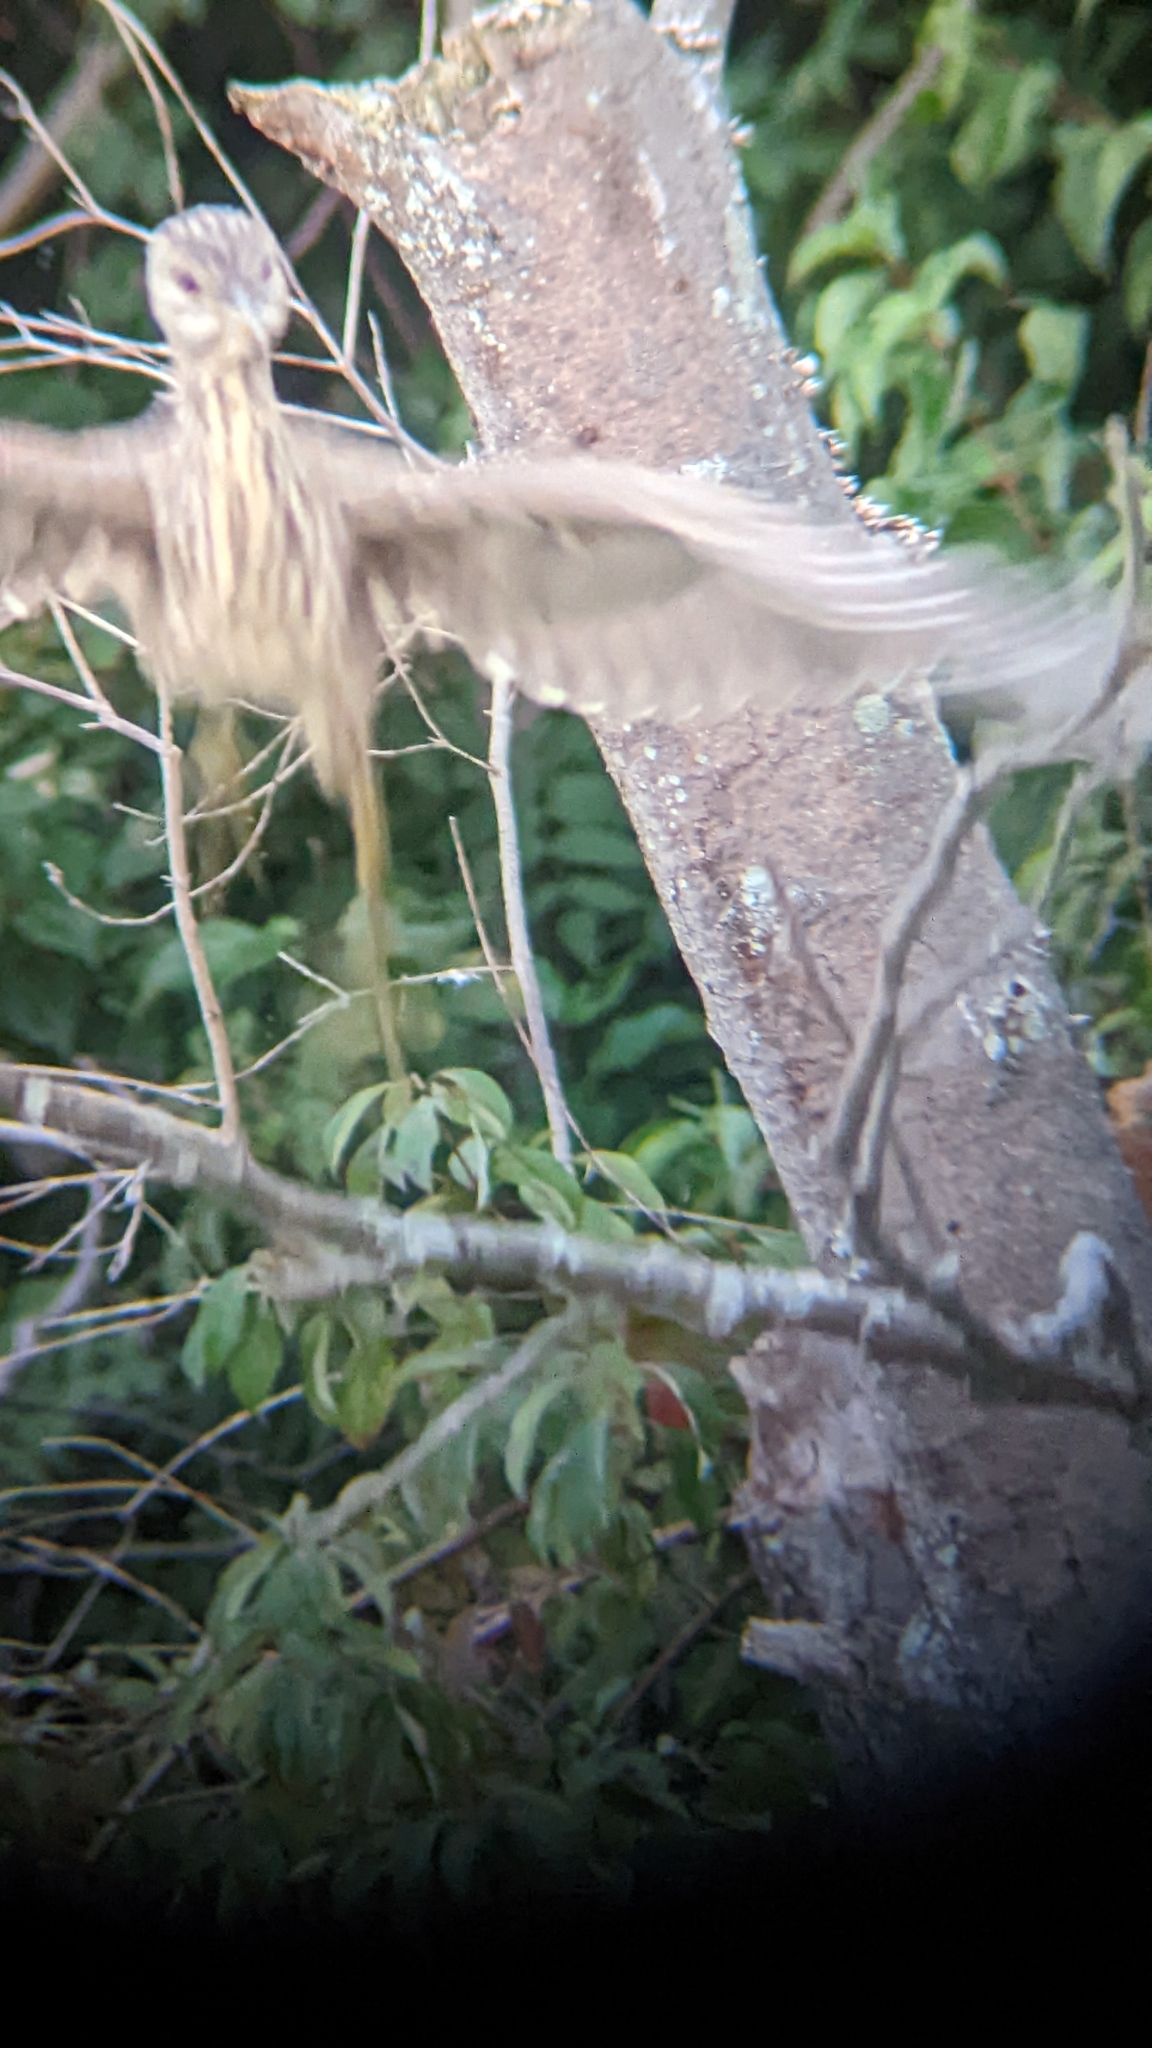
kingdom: Animalia
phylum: Chordata
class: Aves
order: Pelecaniformes
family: Ardeidae
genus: Nycticorax
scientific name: Nycticorax nycticorax
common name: Black-crowned night heron
